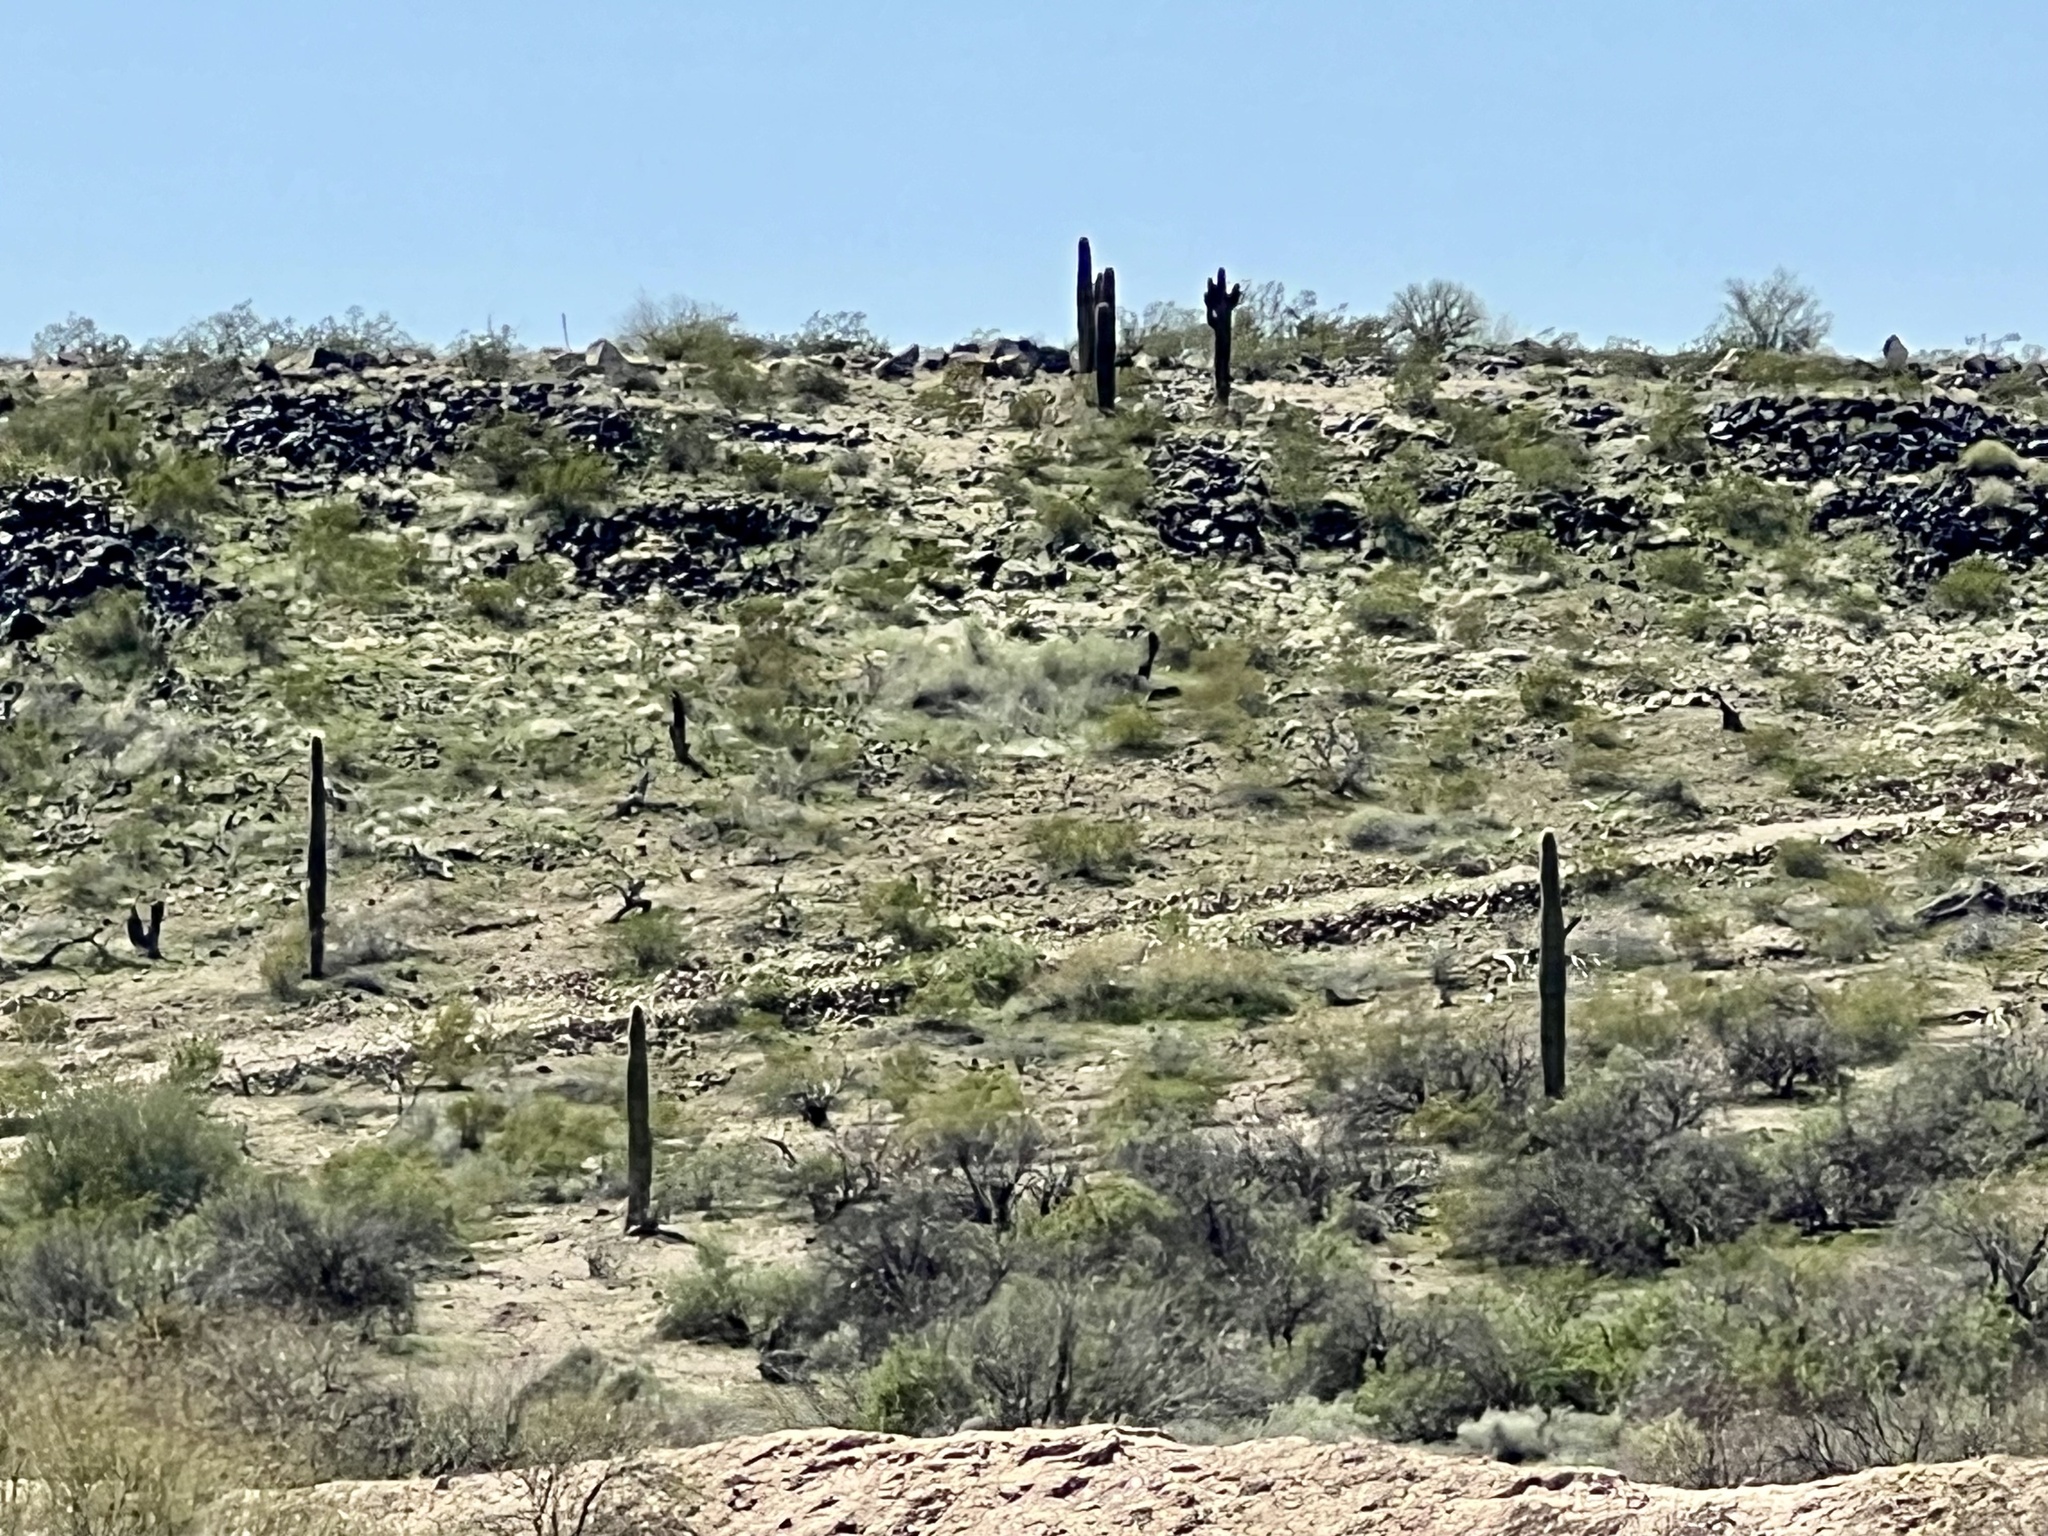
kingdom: Plantae
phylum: Tracheophyta
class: Magnoliopsida
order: Caryophyllales
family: Cactaceae
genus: Carnegiea
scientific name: Carnegiea gigantea
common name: Saguaro
